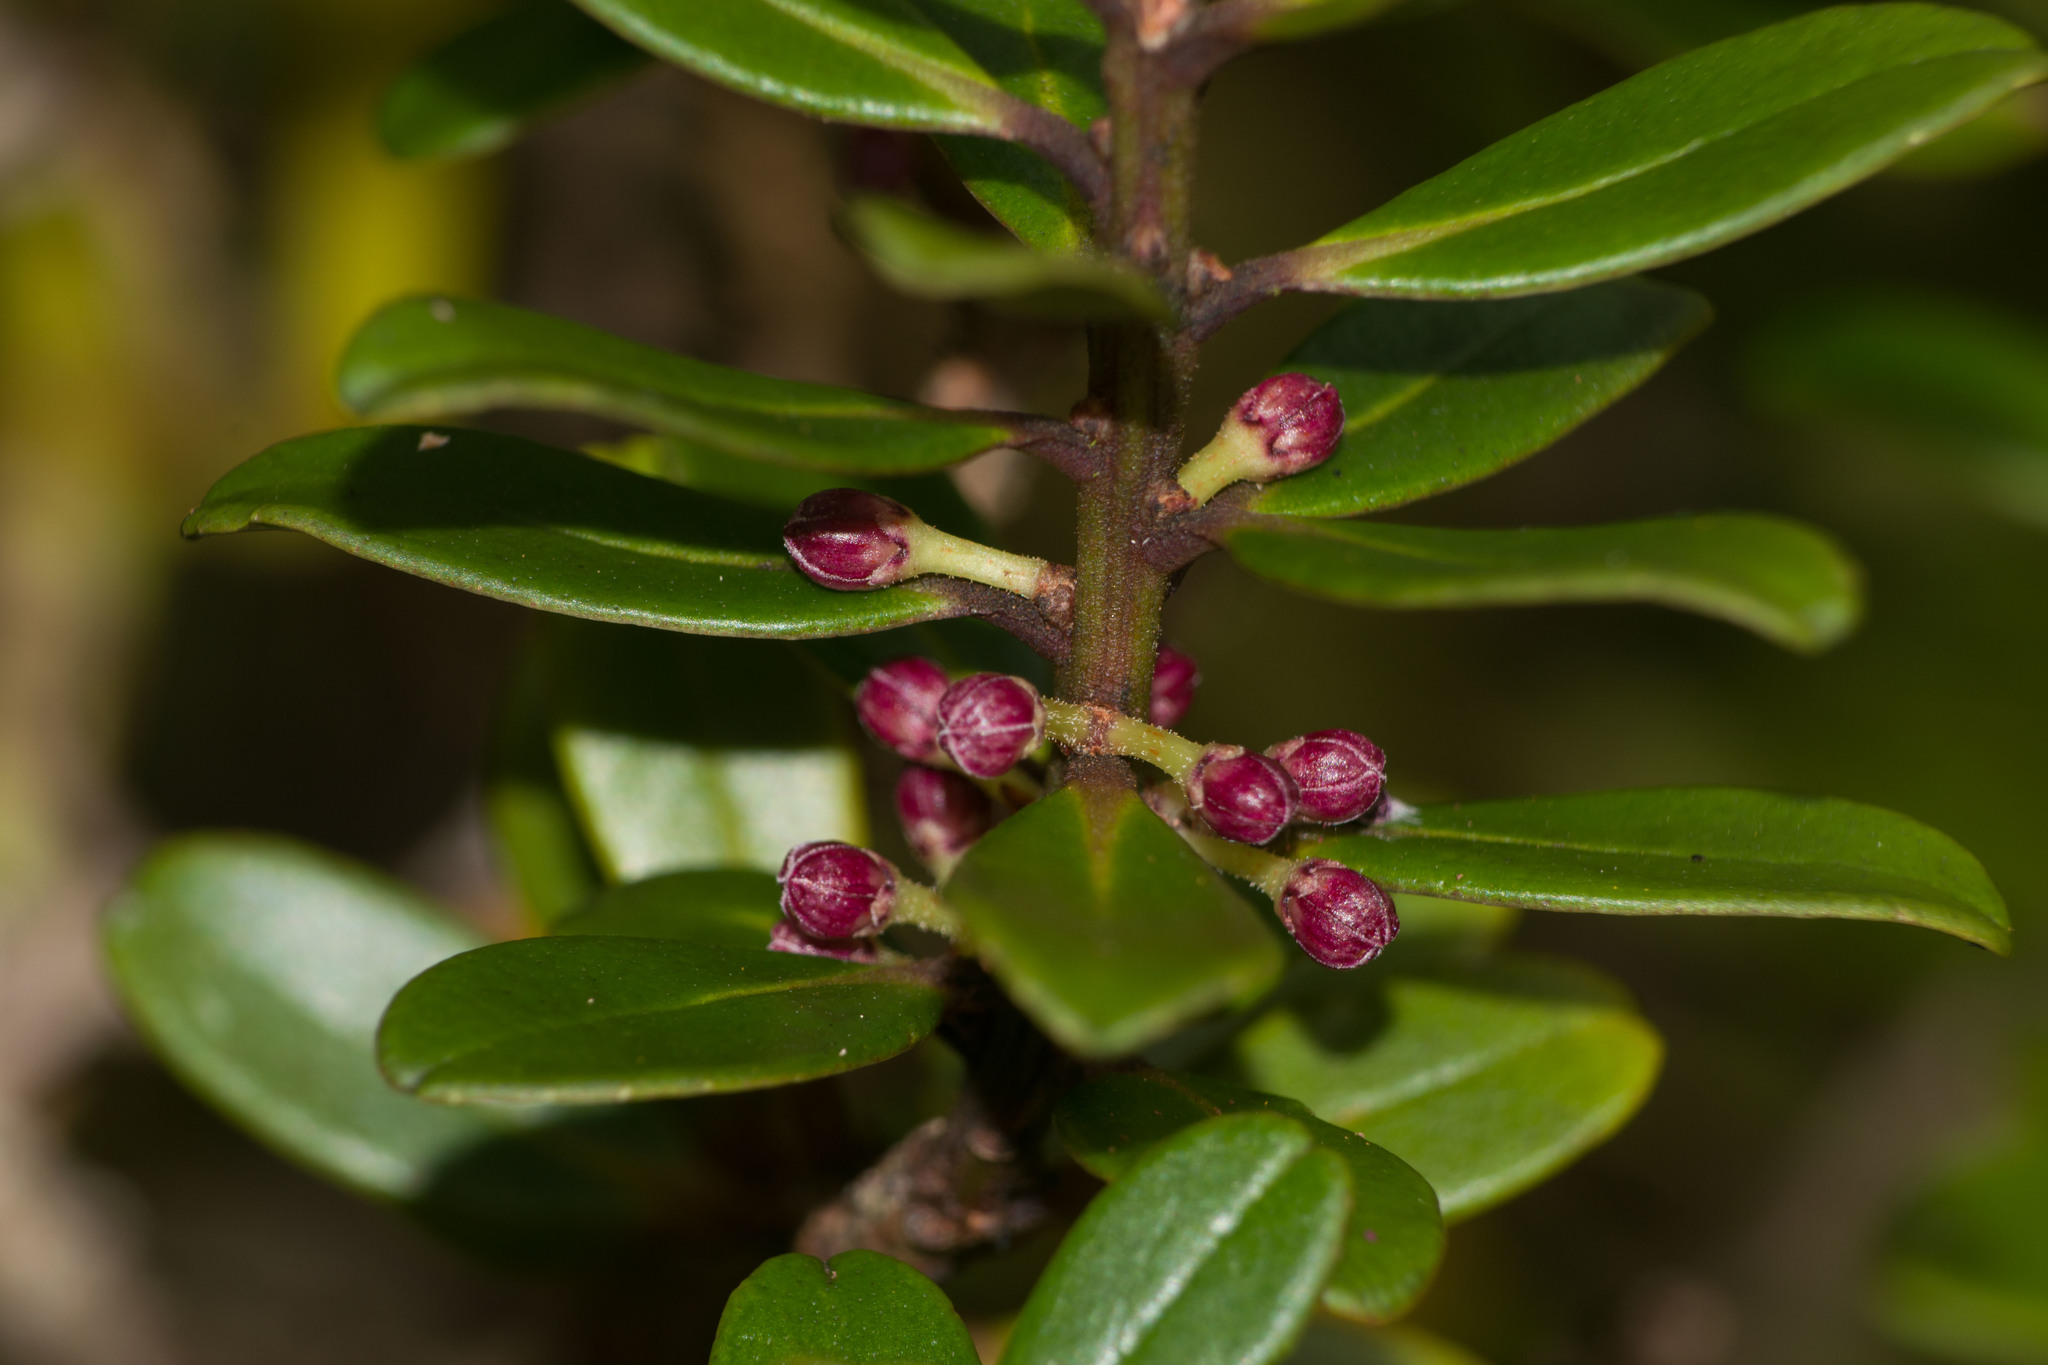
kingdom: Plantae
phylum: Tracheophyta
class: Magnoliopsida
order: Ericales
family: Primulaceae
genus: Myrsine
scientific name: Myrsine sandwicensis
